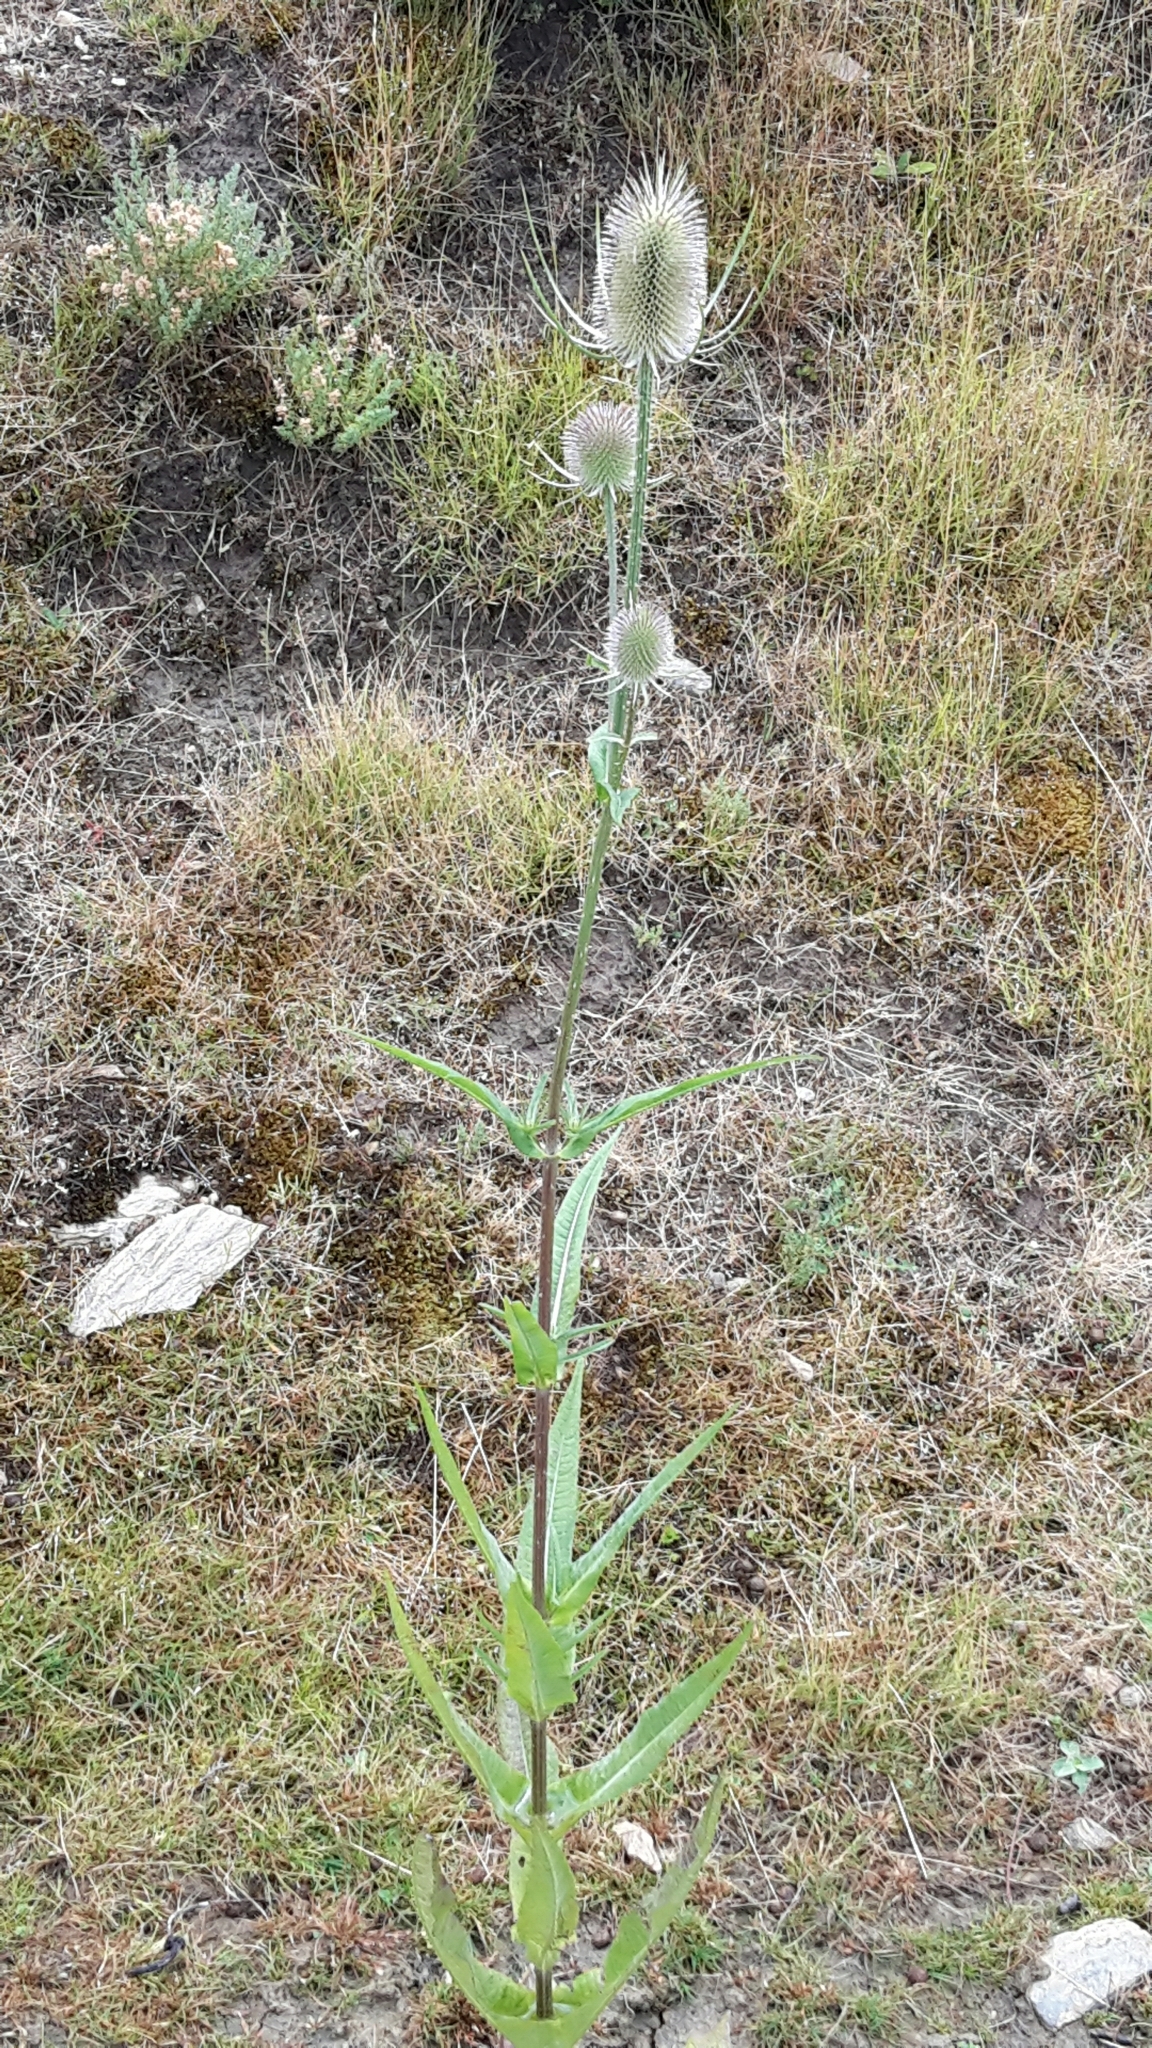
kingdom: Plantae
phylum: Tracheophyta
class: Magnoliopsida
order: Dipsacales
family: Caprifoliaceae
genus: Dipsacus
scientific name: Dipsacus fullonum
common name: Teasel
